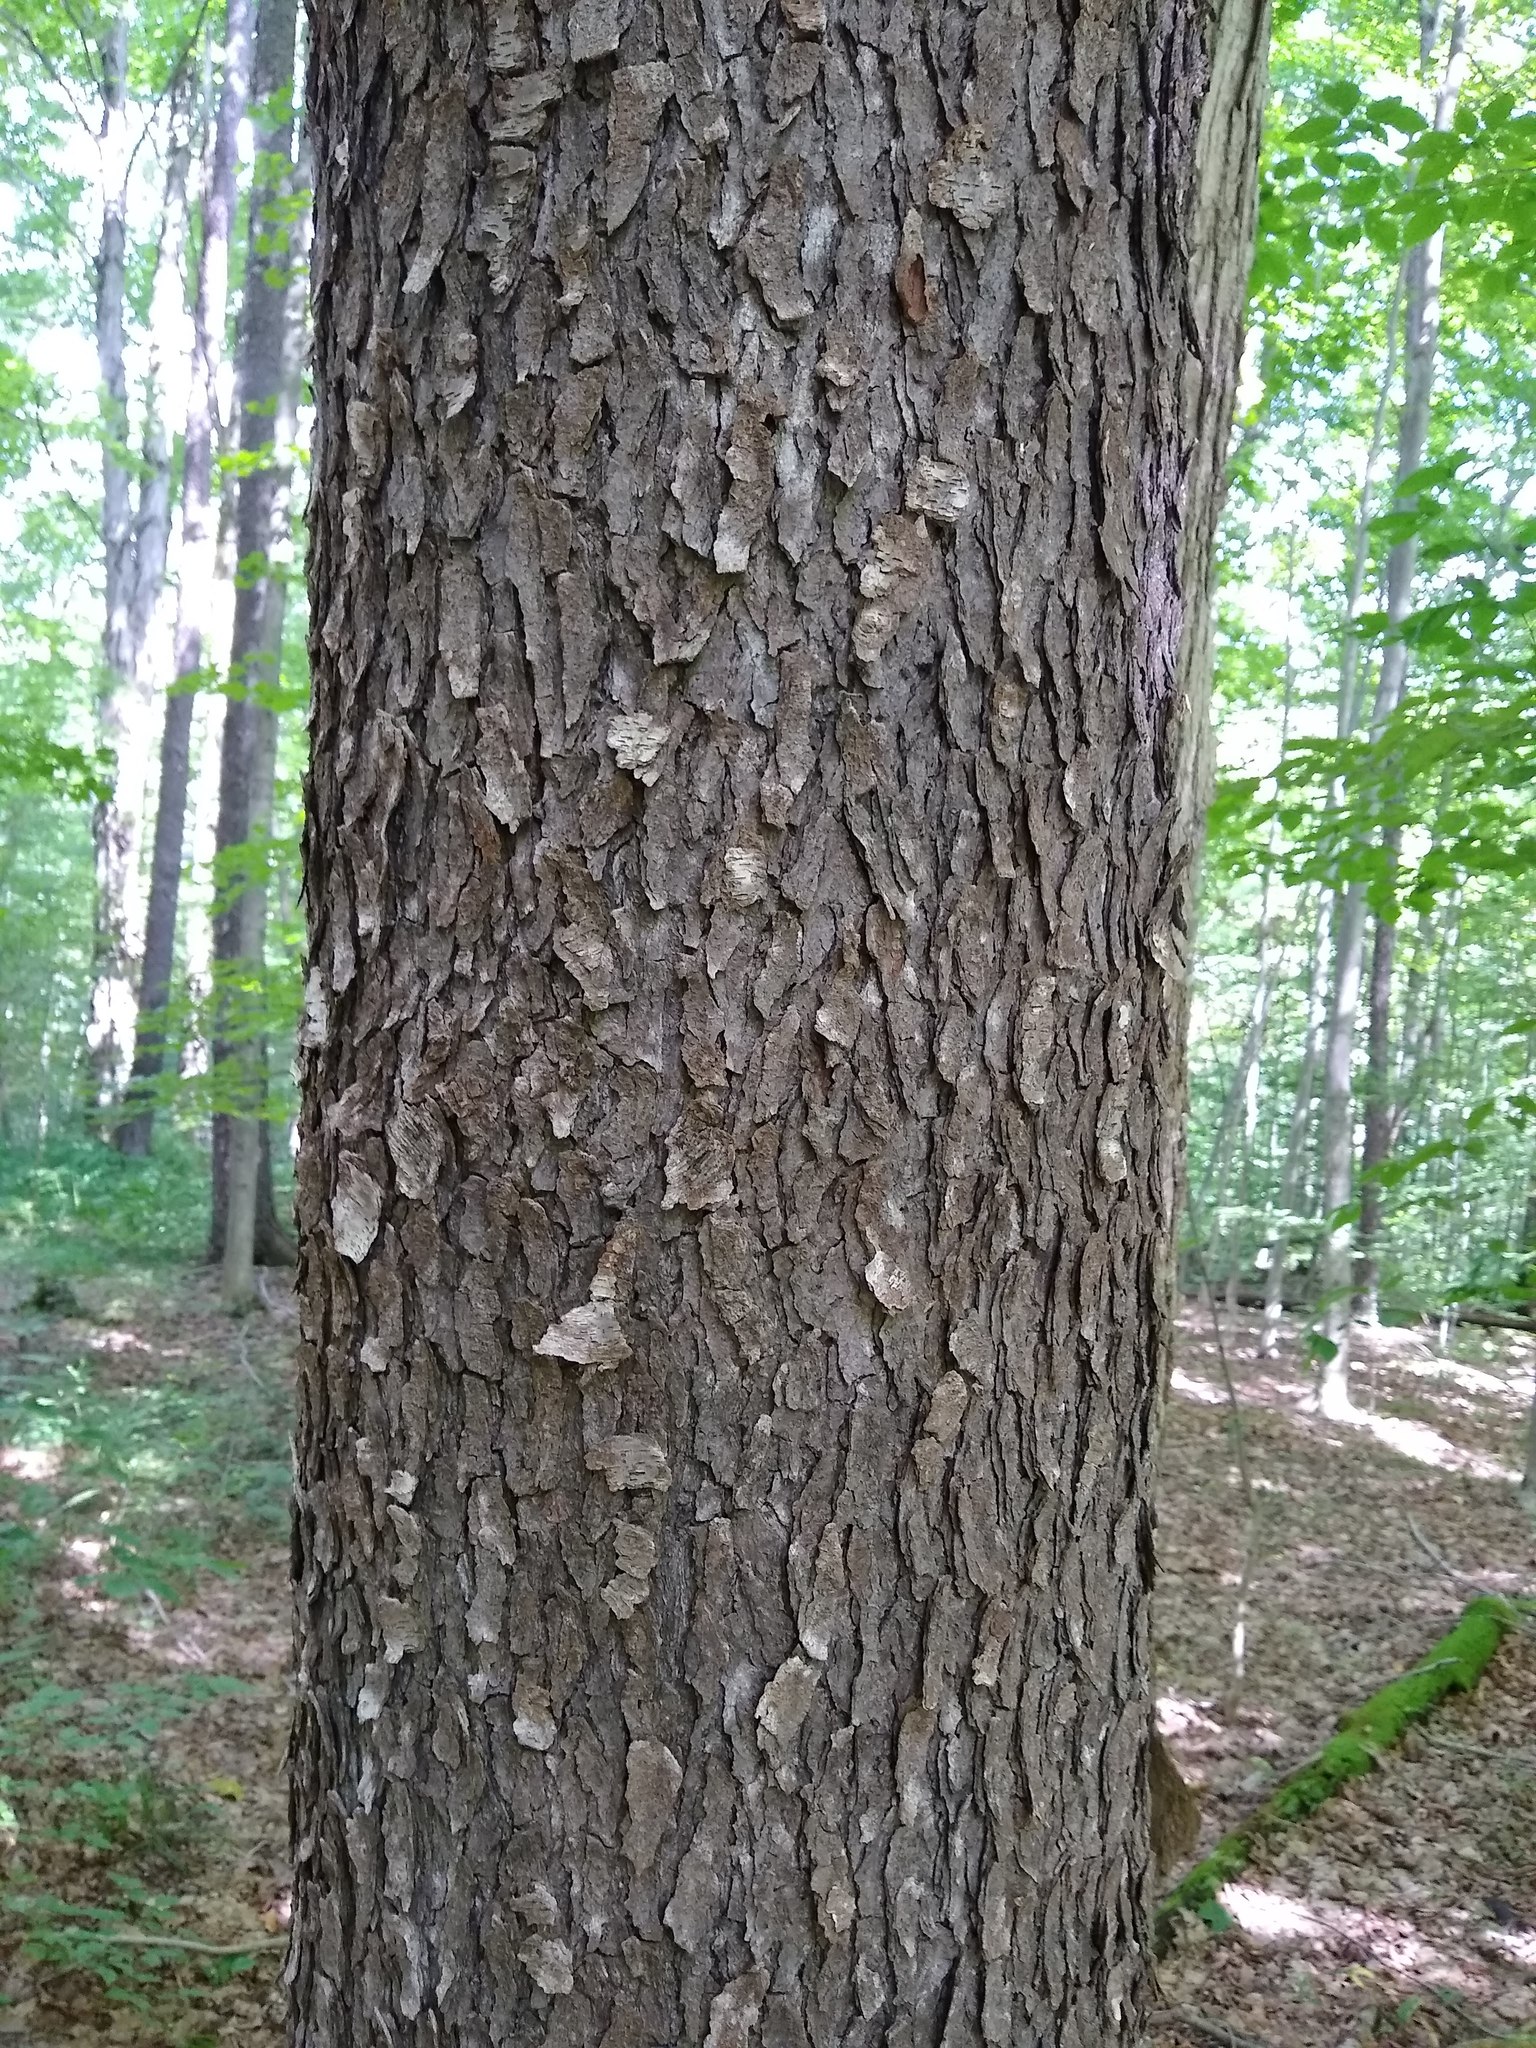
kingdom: Plantae
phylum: Tracheophyta
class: Magnoliopsida
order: Rosales
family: Rosaceae
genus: Prunus
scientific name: Prunus serotina
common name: Black cherry
